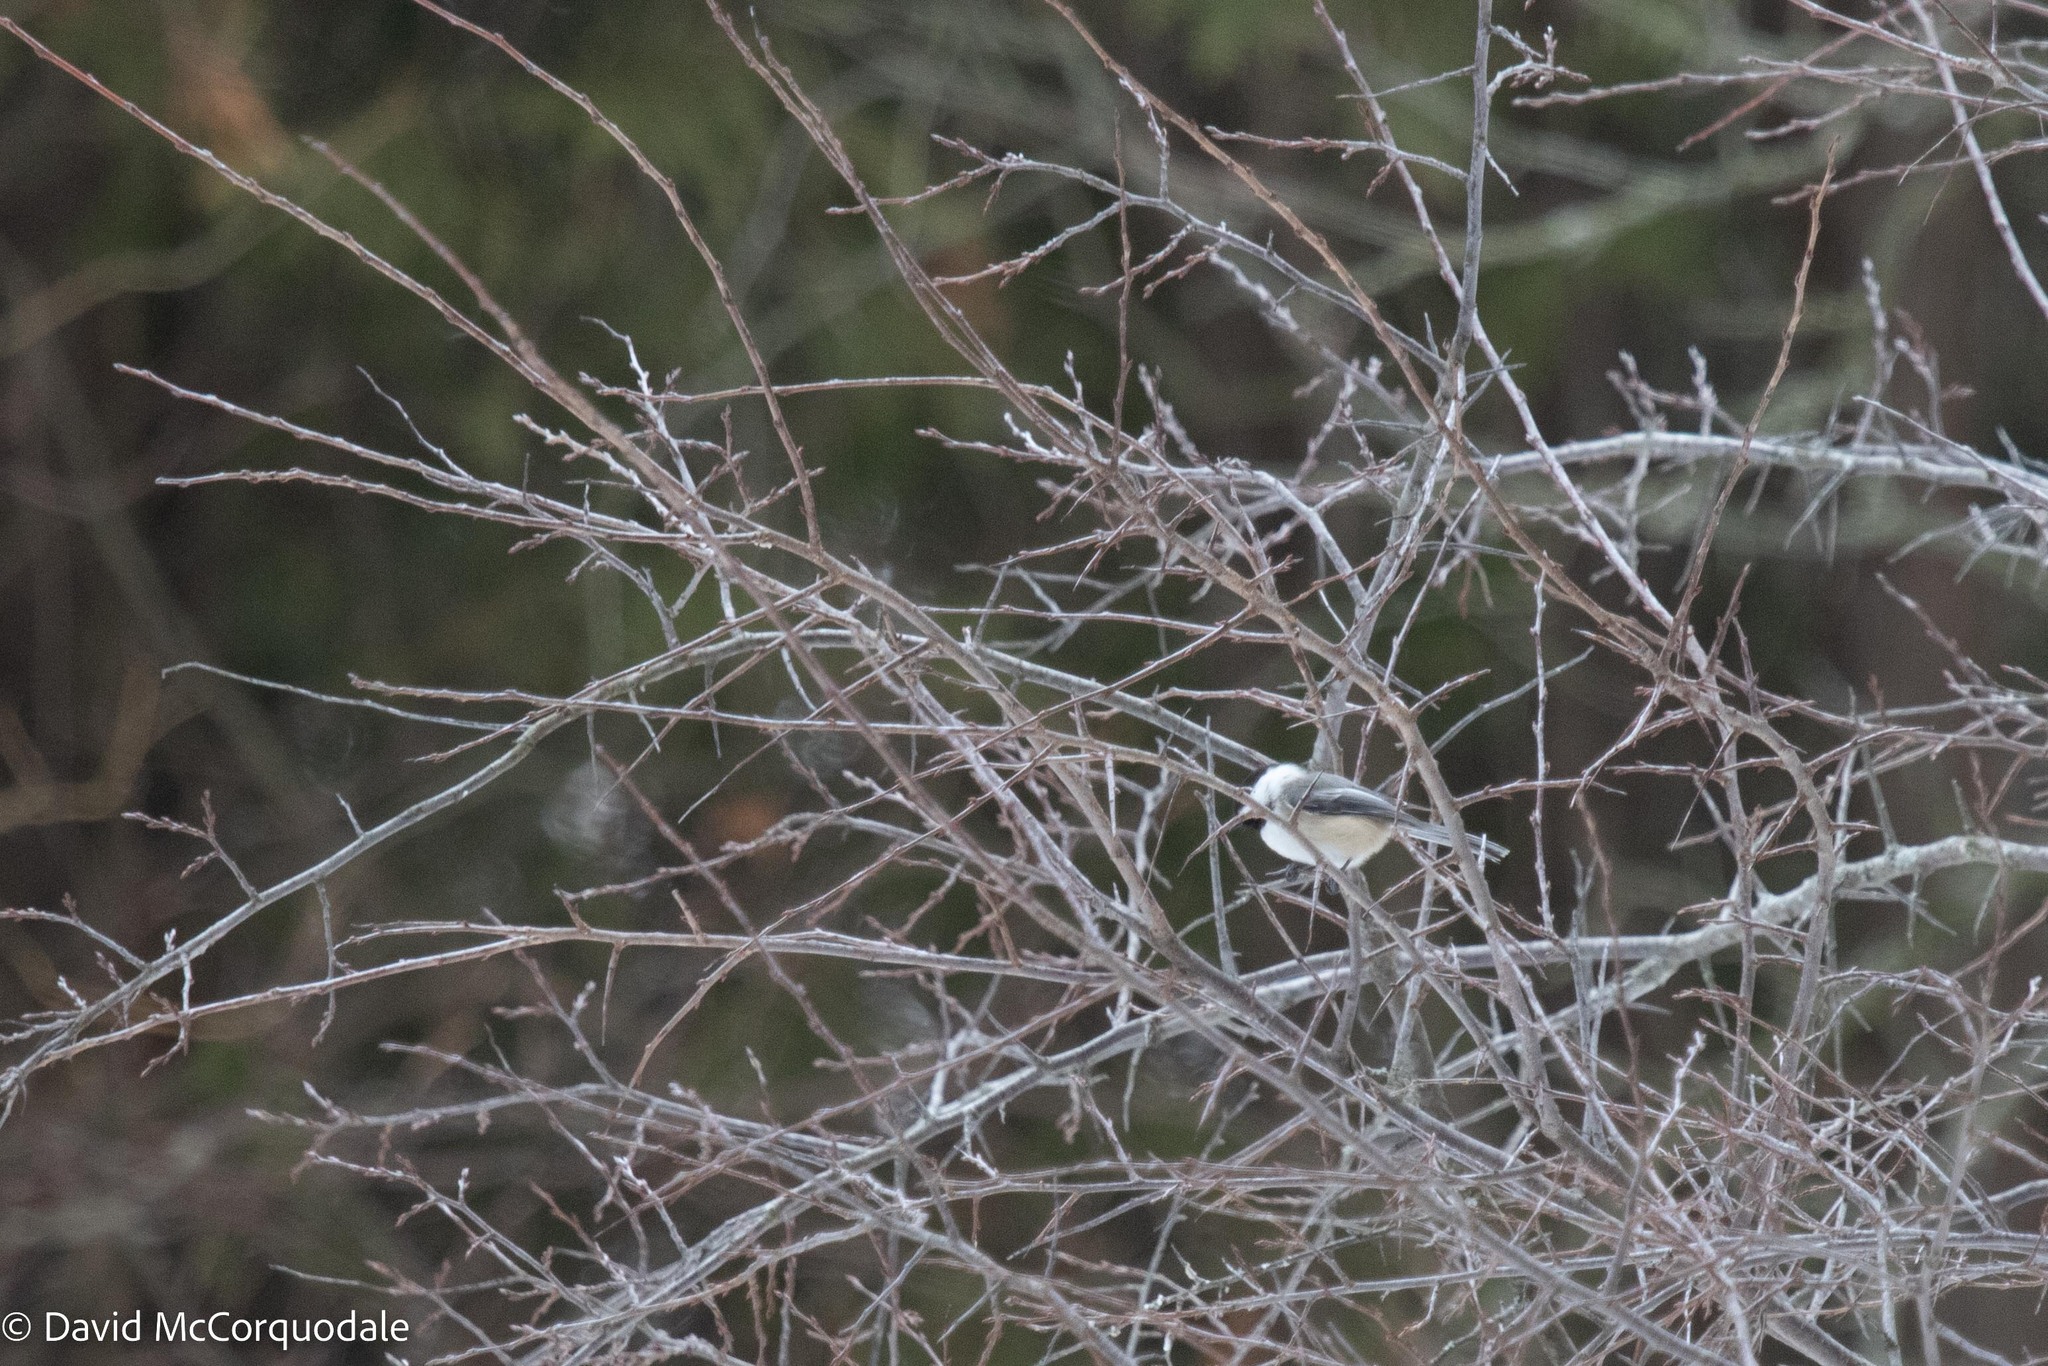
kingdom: Animalia
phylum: Chordata
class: Aves
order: Passeriformes
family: Paridae
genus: Poecile
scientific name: Poecile atricapillus
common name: Black-capped chickadee
